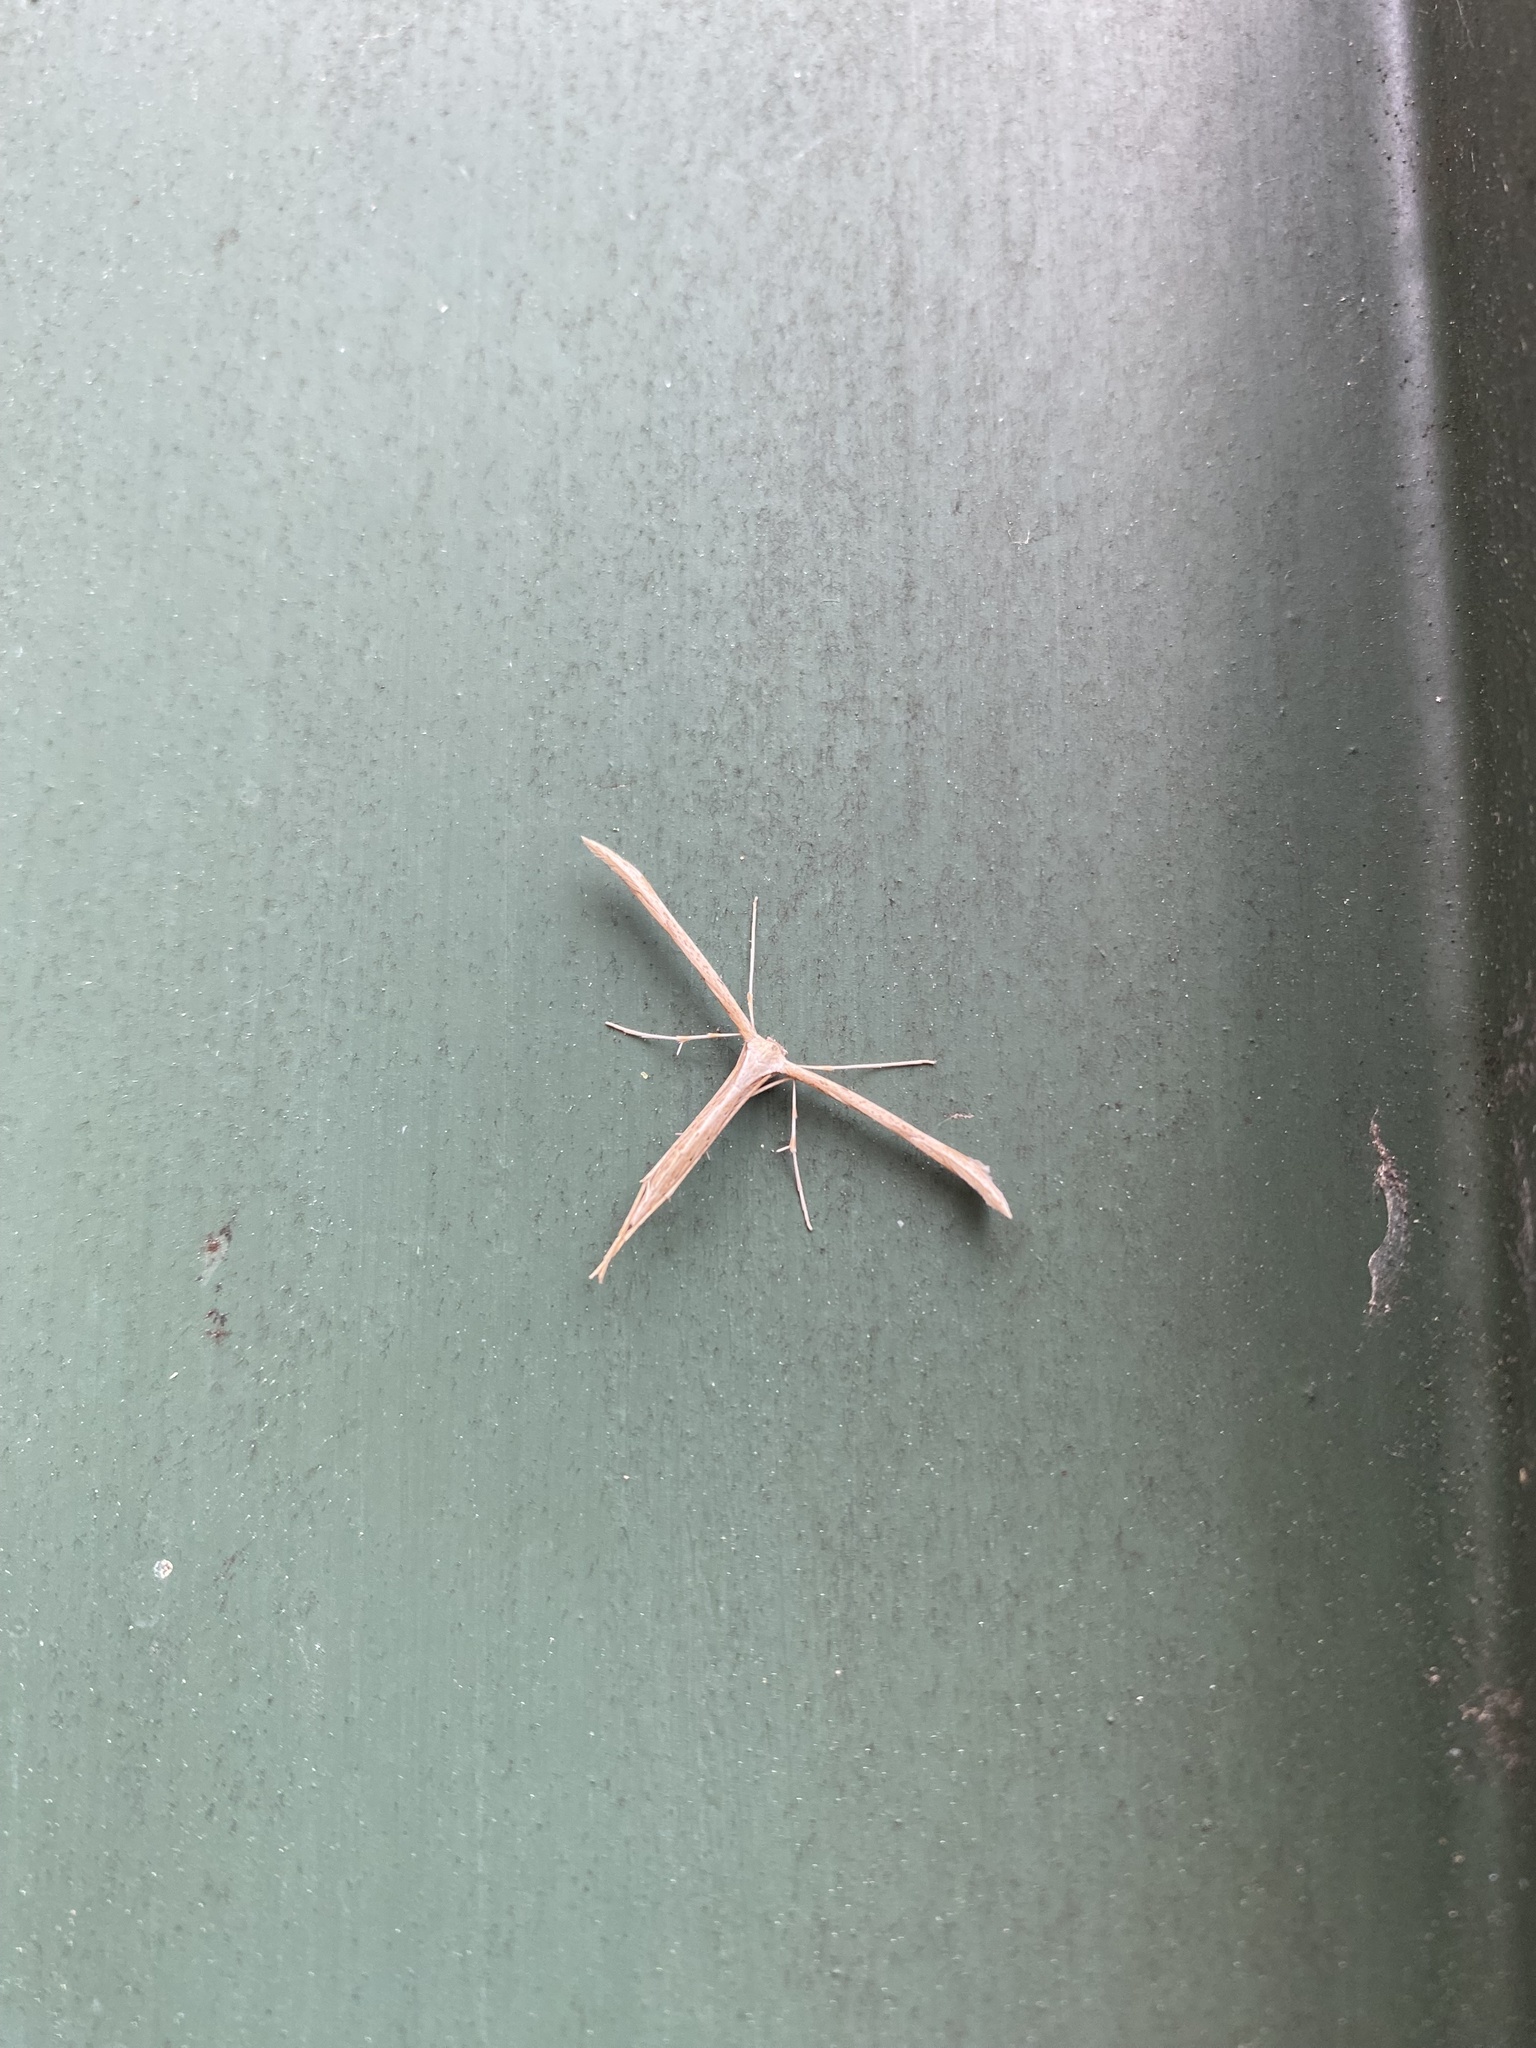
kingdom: Animalia
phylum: Arthropoda
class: Insecta
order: Lepidoptera
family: Pterophoridae
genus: Emmelina
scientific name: Emmelina monodactyla
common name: Common plume
